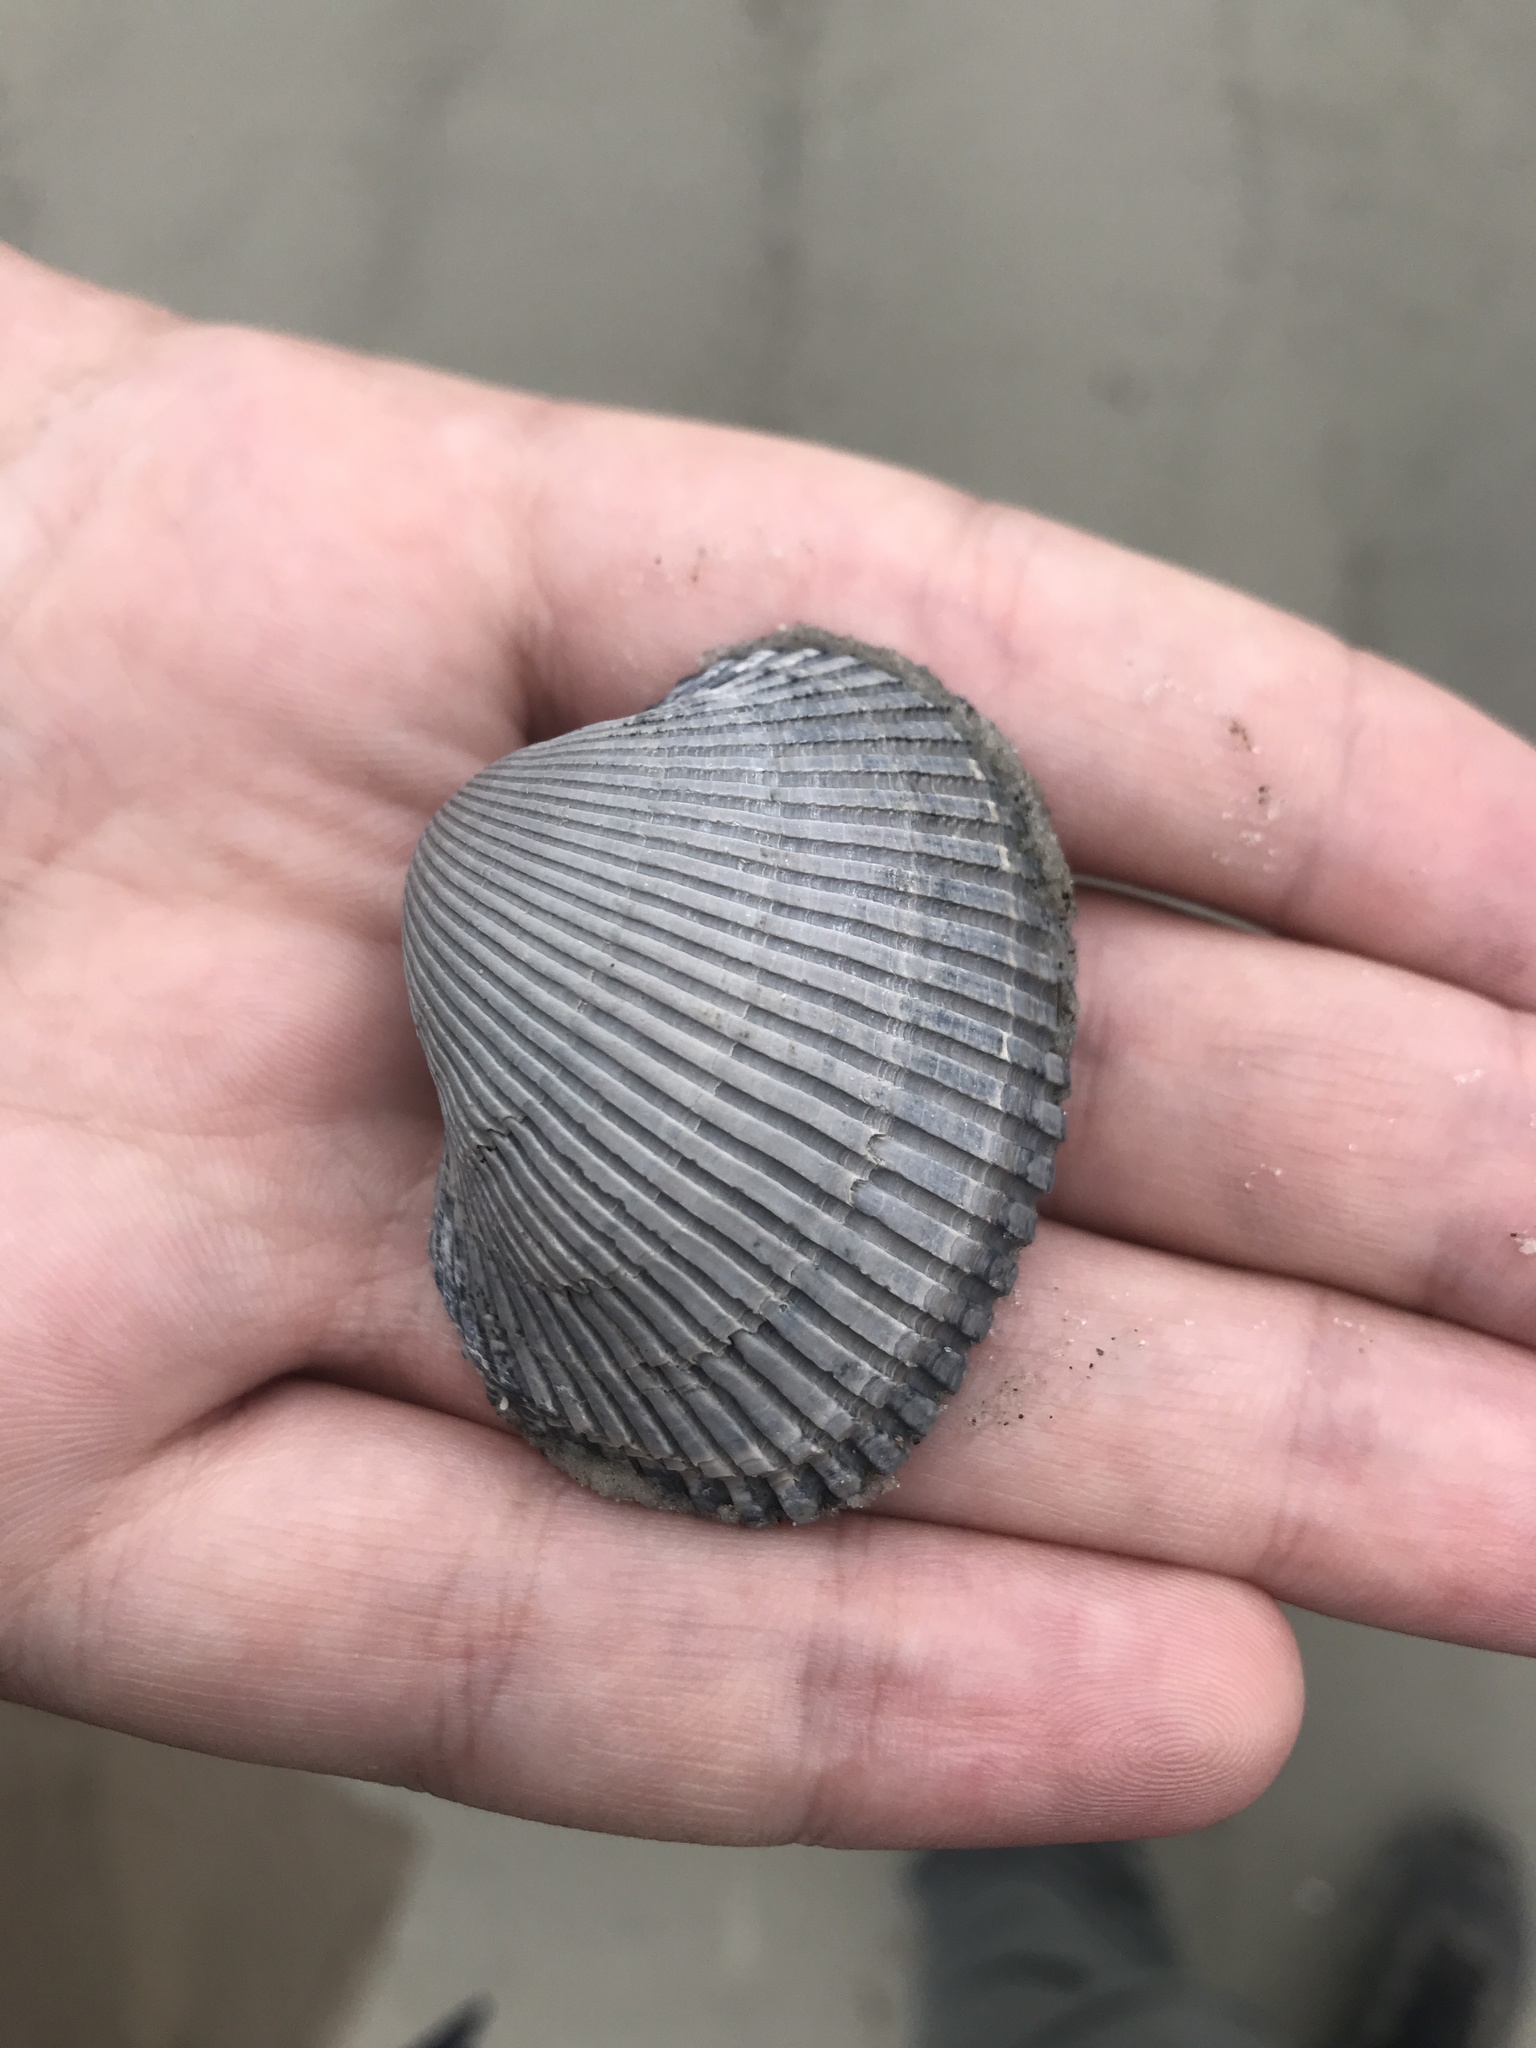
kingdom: Animalia
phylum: Mollusca
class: Bivalvia
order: Arcida
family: Arcidae
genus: Lunarca
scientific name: Lunarca ovalis
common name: Blood ark
